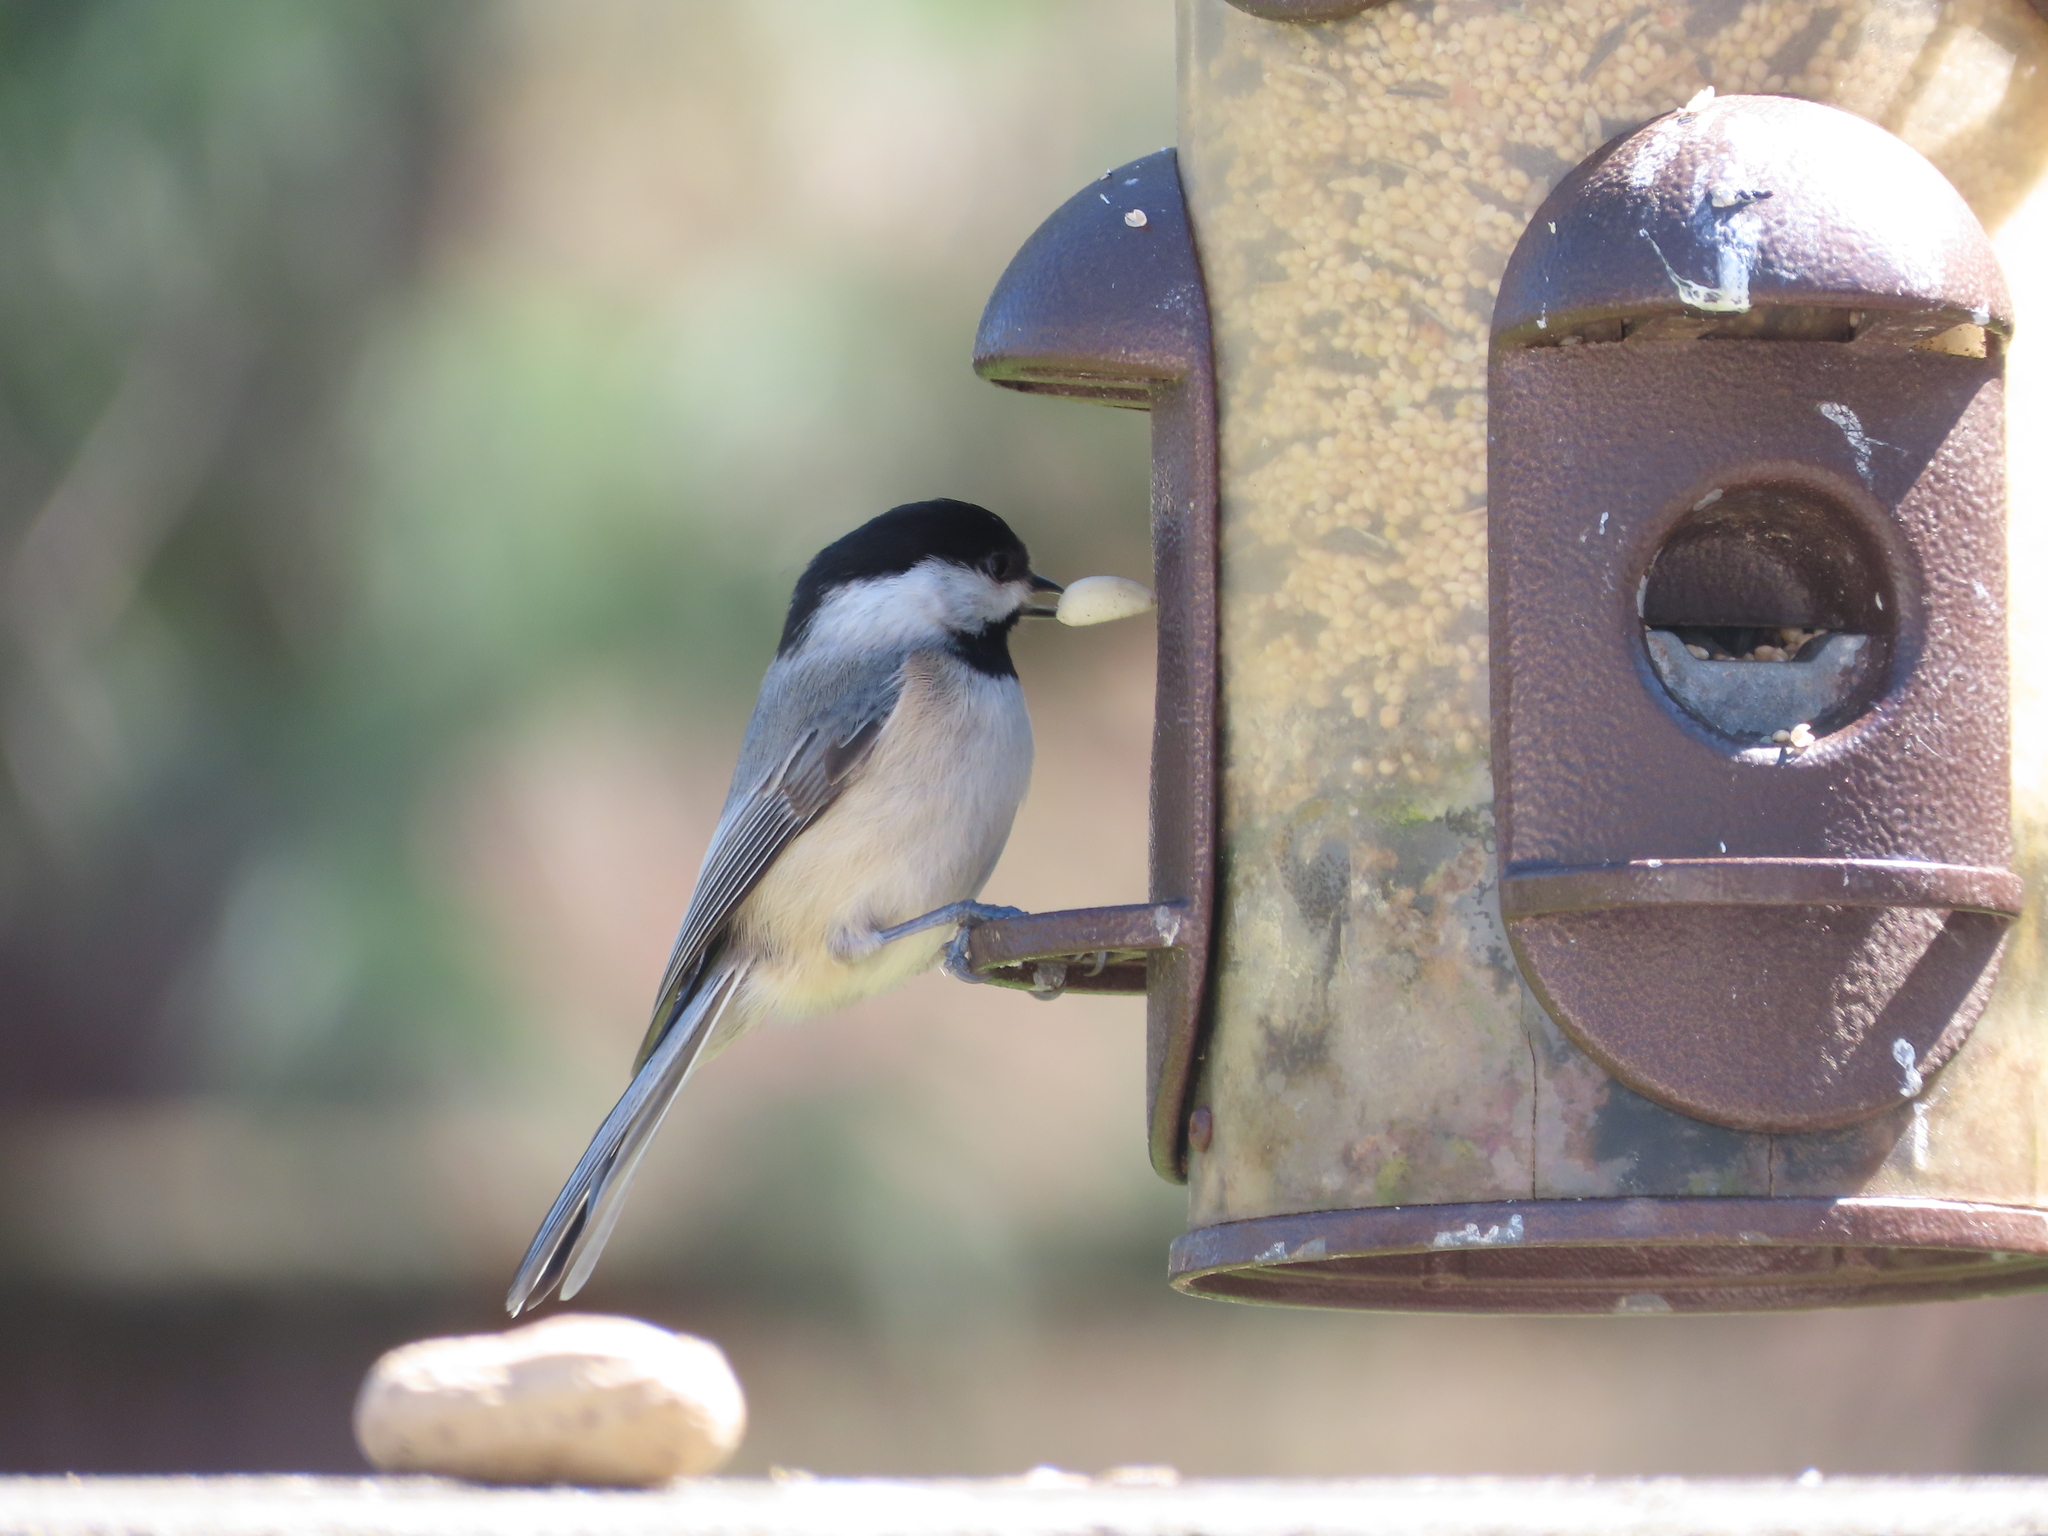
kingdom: Animalia
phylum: Chordata
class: Aves
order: Passeriformes
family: Paridae
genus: Poecile
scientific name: Poecile carolinensis
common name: Carolina chickadee
